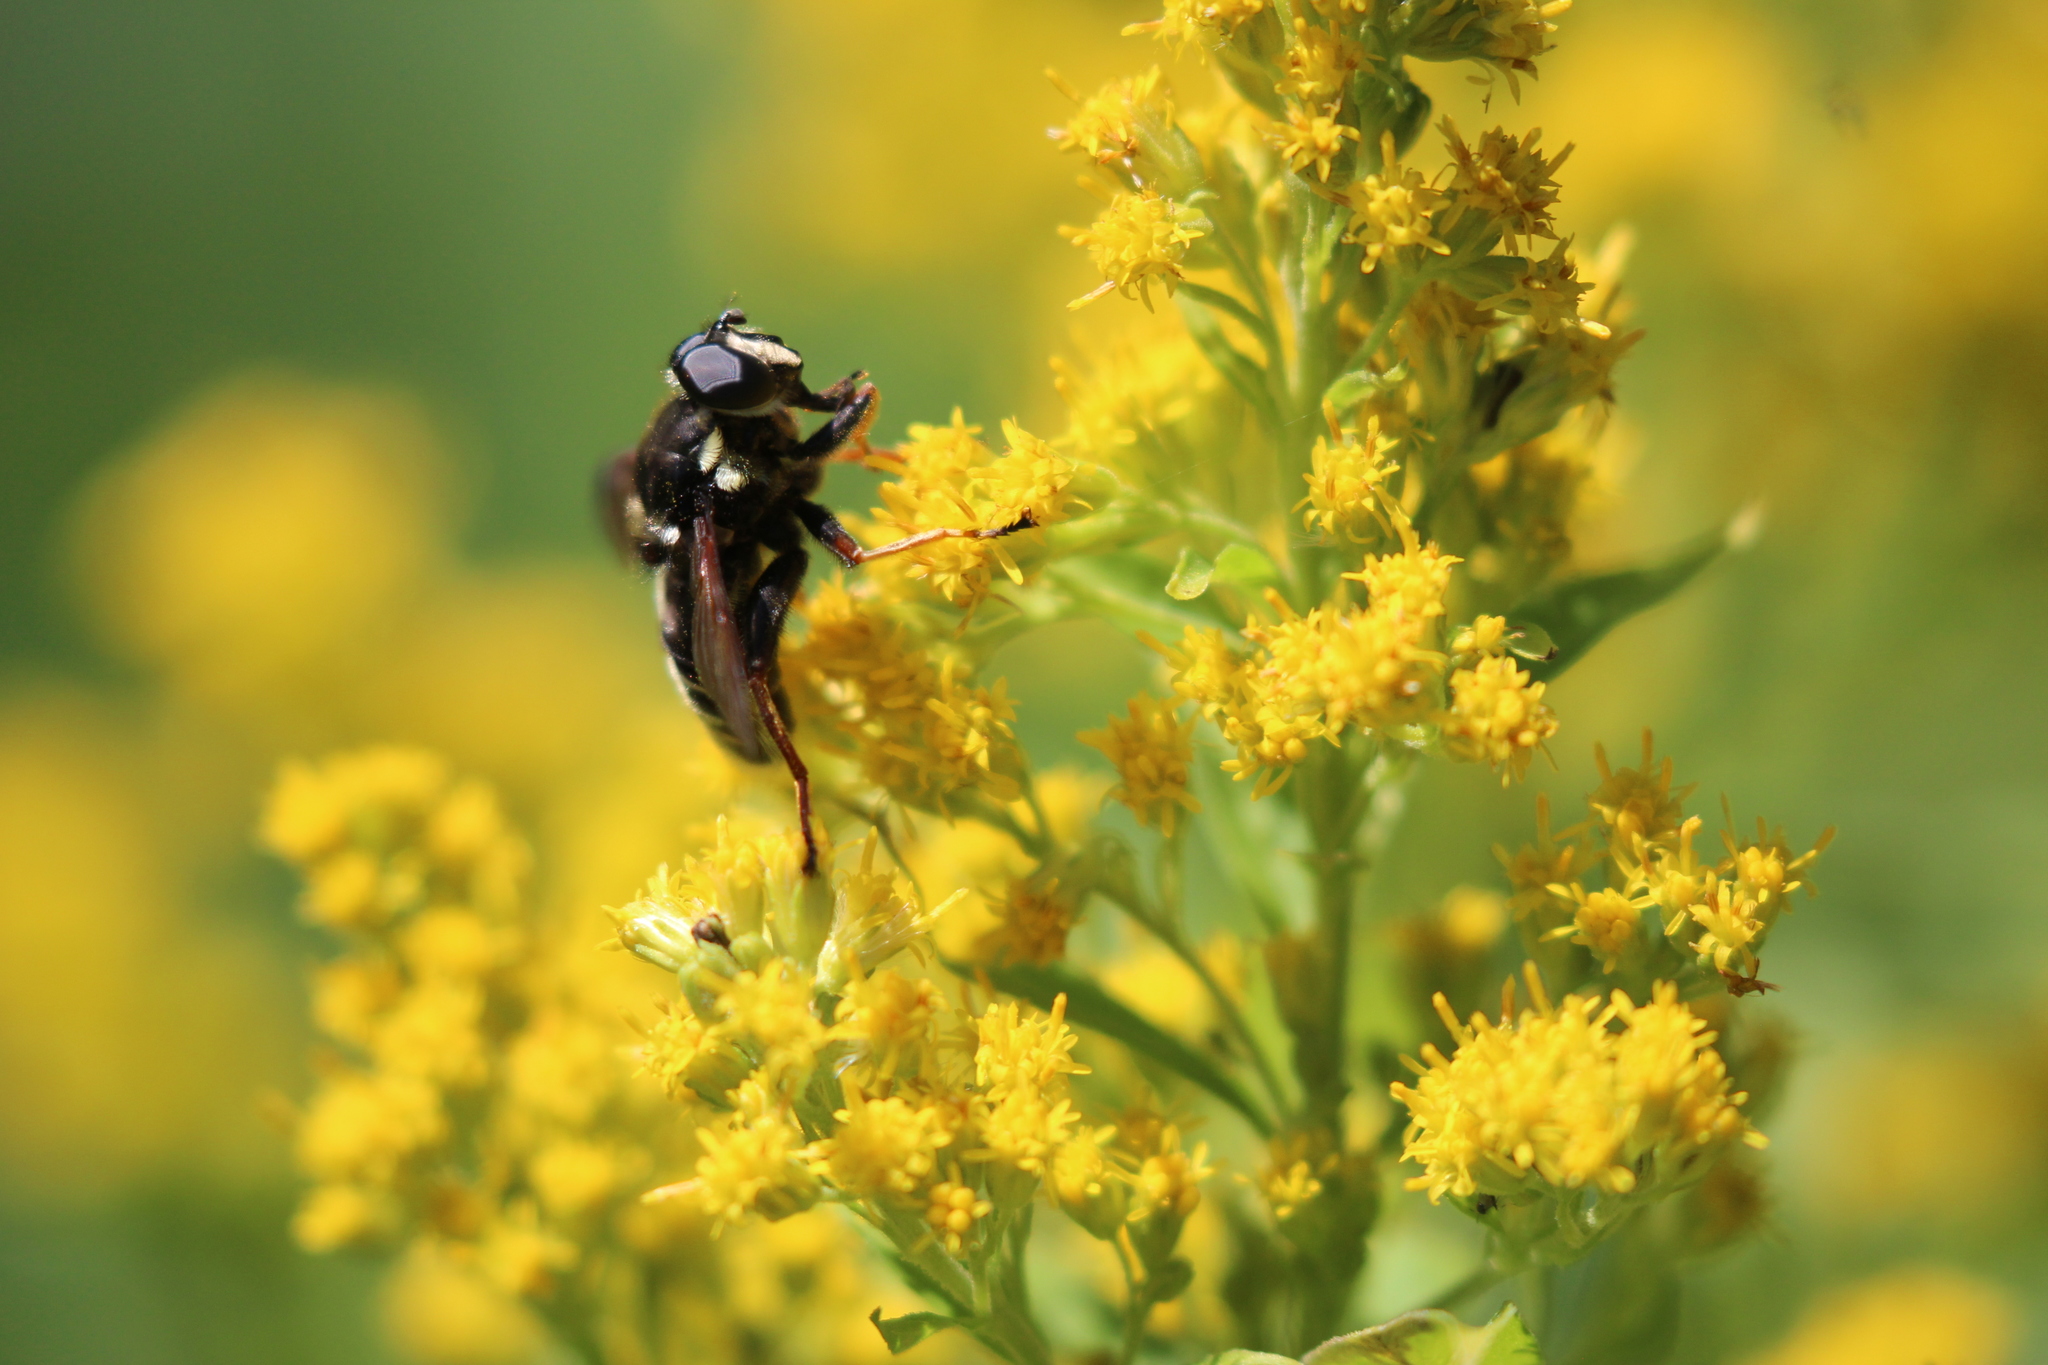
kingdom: Animalia
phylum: Arthropoda
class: Insecta
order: Diptera
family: Syrphidae
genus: Sericomyia
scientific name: Sericomyia militaris
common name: Narrow-banded pond fly
